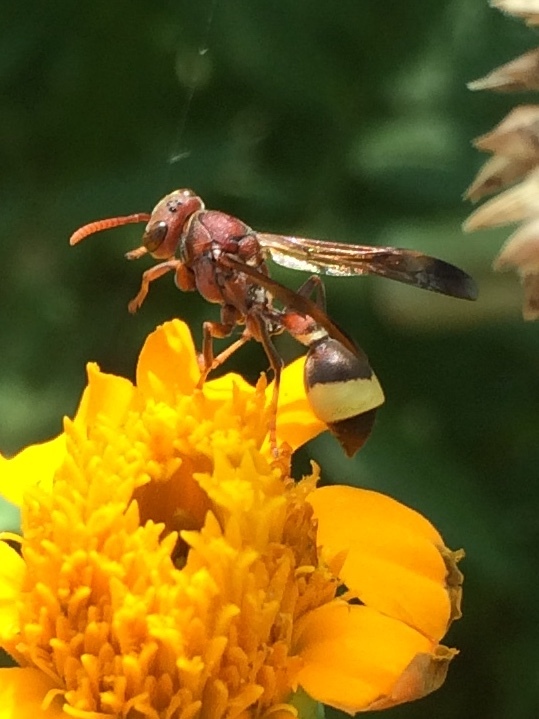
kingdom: Animalia
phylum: Arthropoda
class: Insecta
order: Hymenoptera
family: Vespidae
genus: Ropalidia
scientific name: Ropalidia
